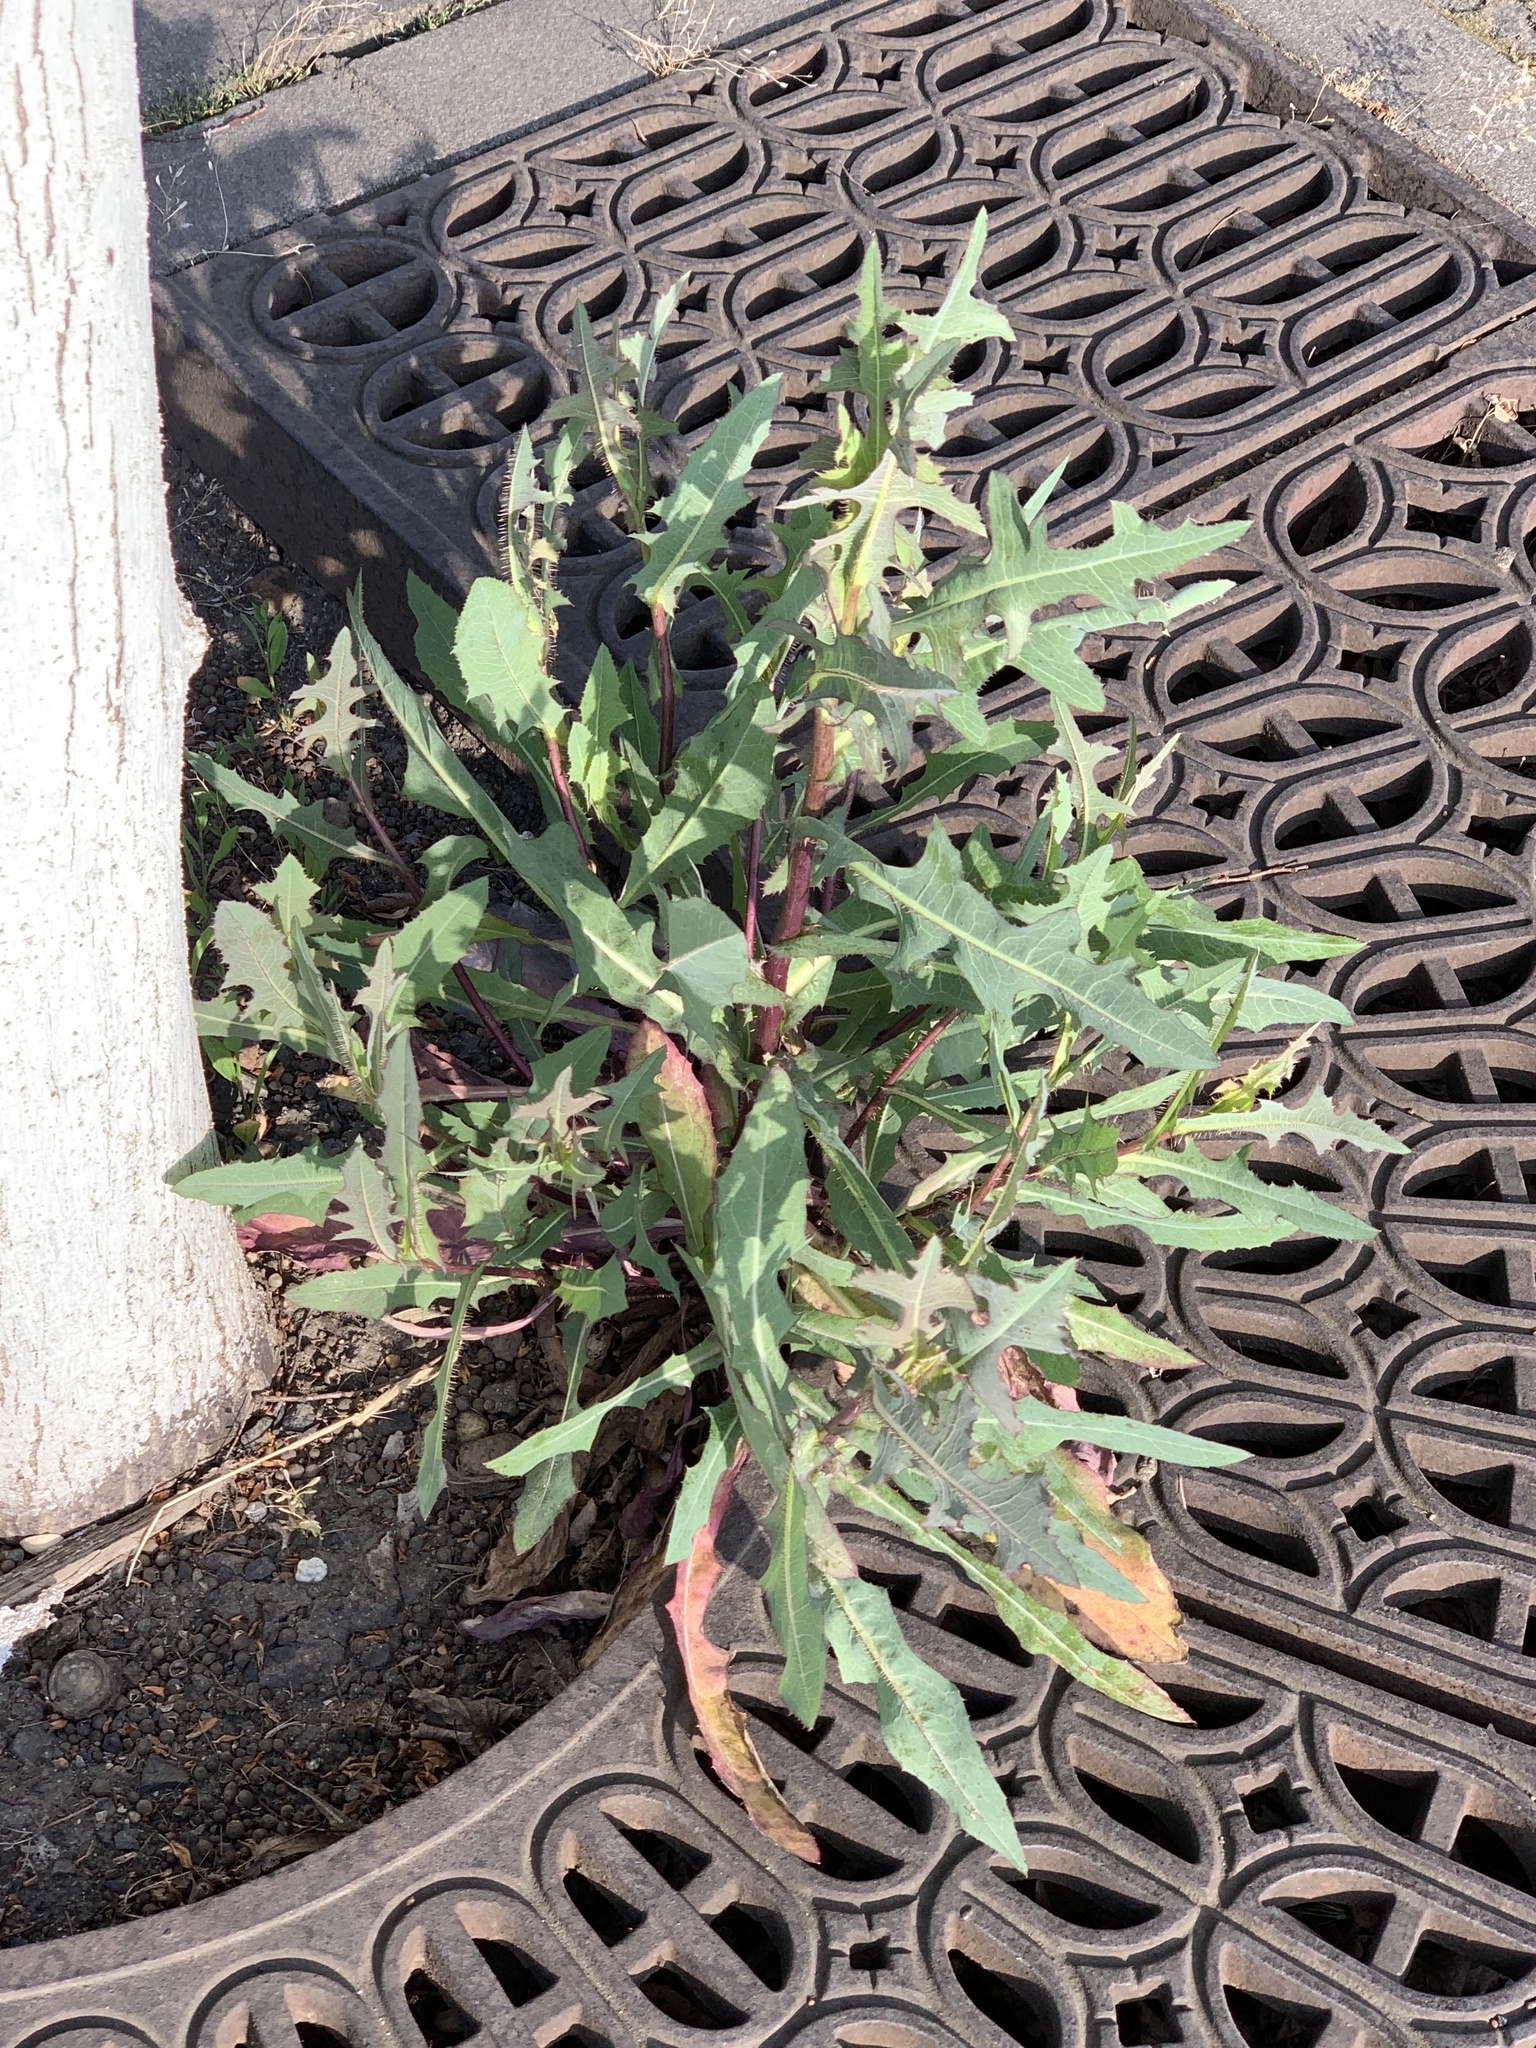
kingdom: Plantae
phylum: Tracheophyta
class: Magnoliopsida
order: Asterales
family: Asteraceae
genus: Lactuca
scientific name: Lactuca serriola
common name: Prickly lettuce
